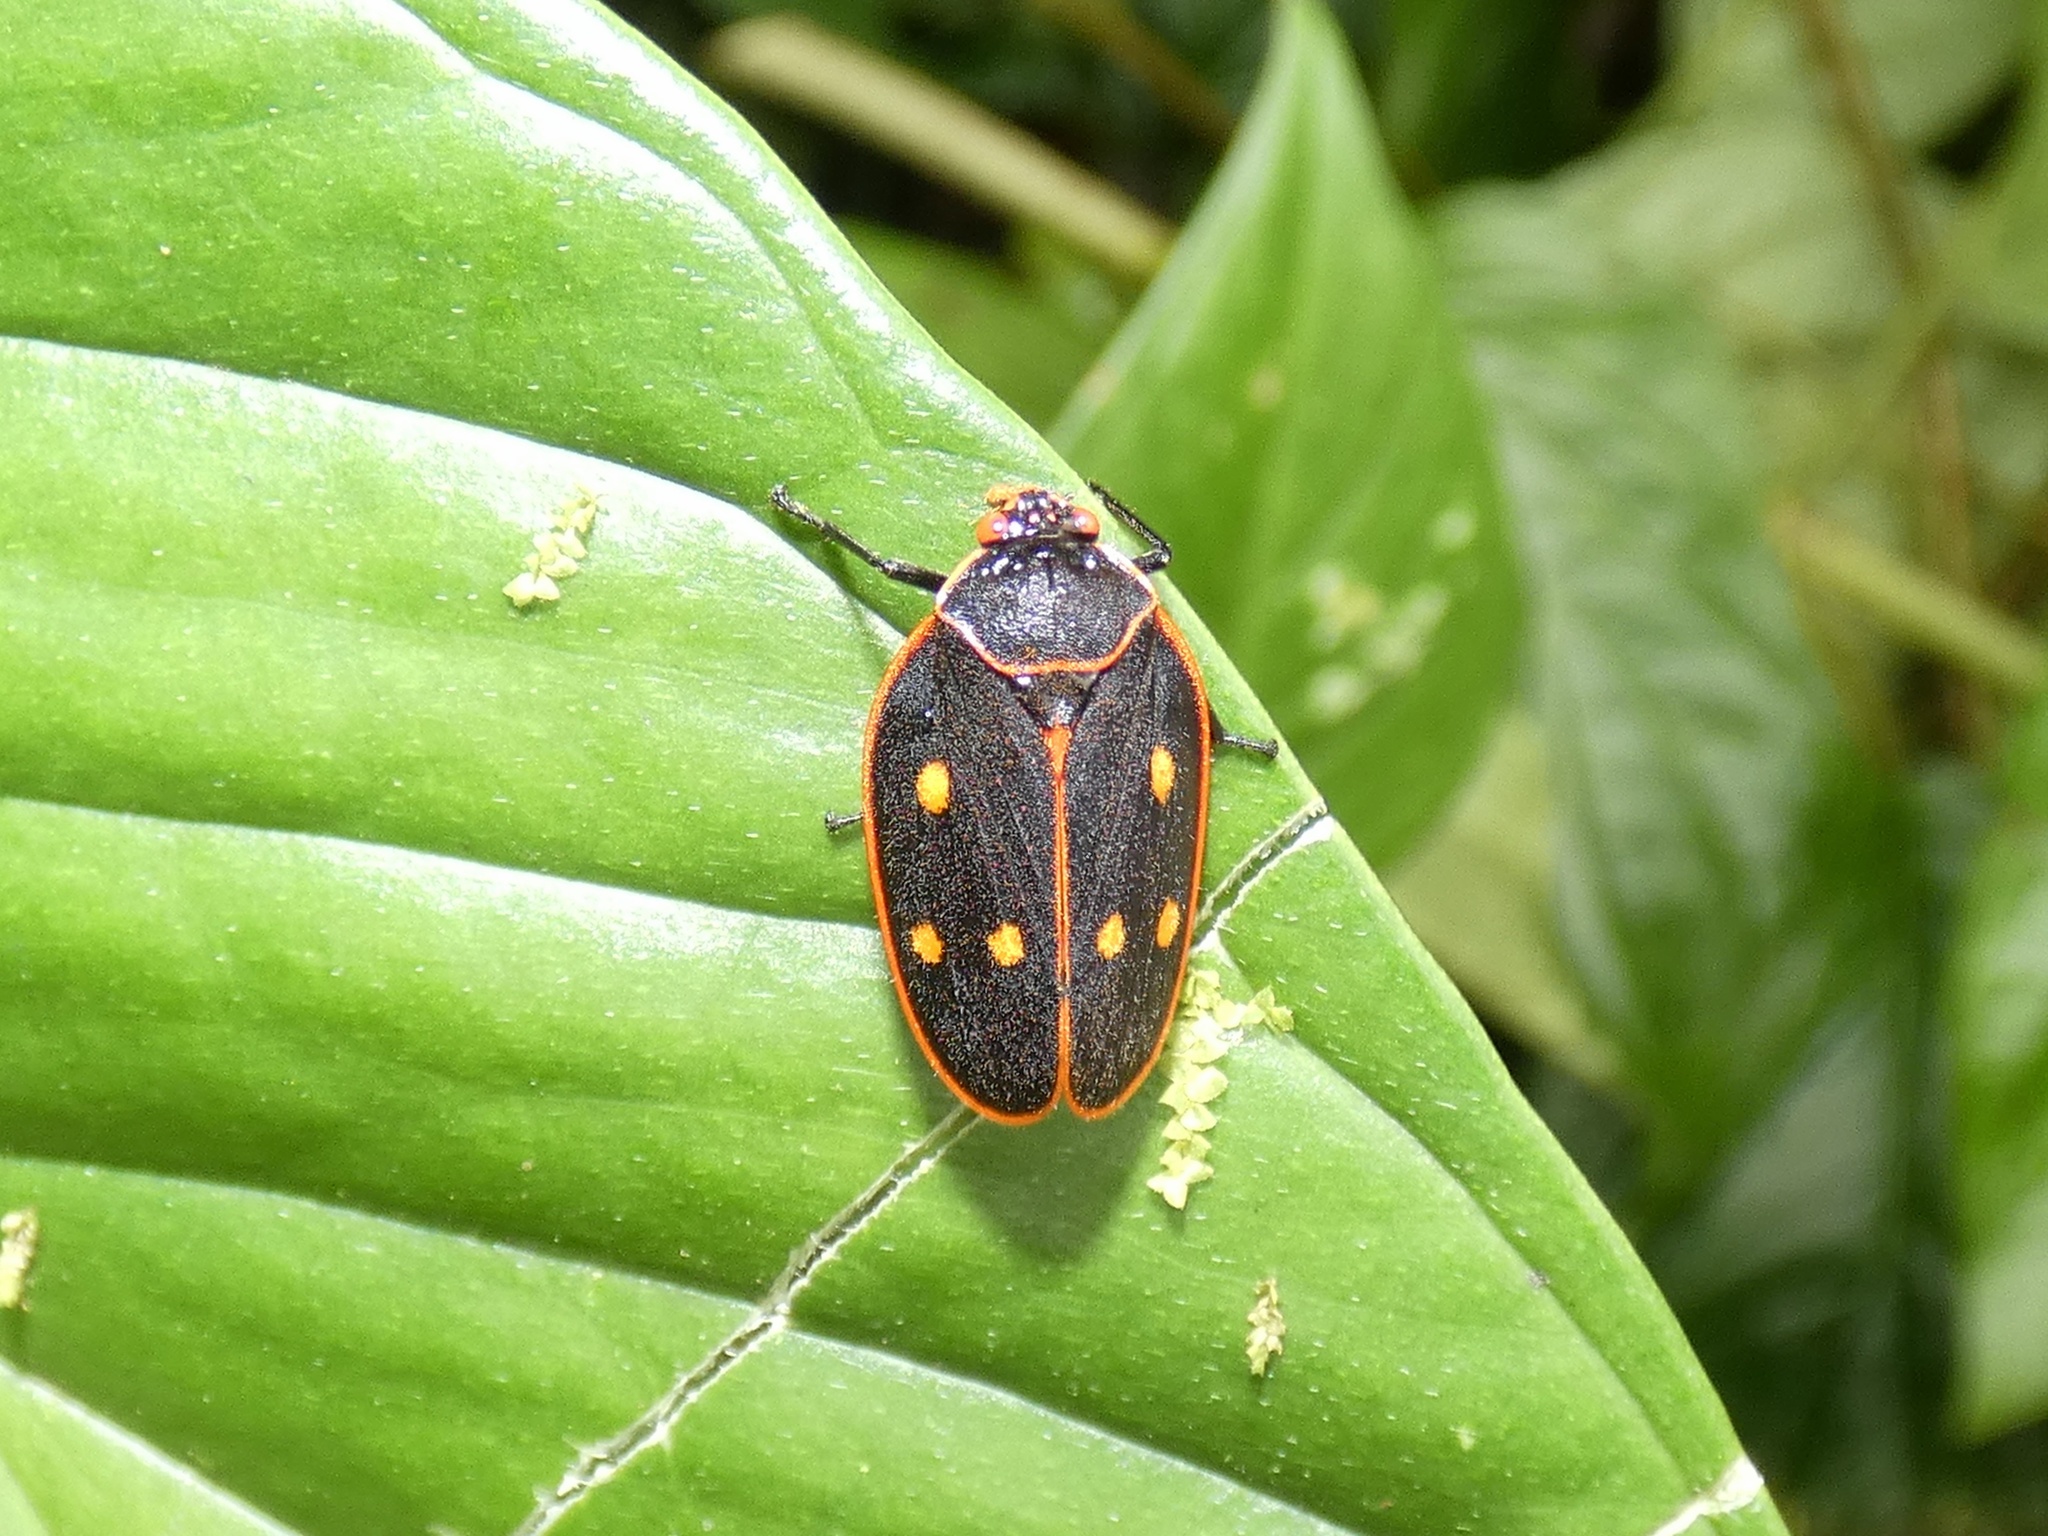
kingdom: Animalia
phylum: Arthropoda
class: Insecta
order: Hemiptera
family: Cercopidae
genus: Iphirhina
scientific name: Iphirhina perfecta
